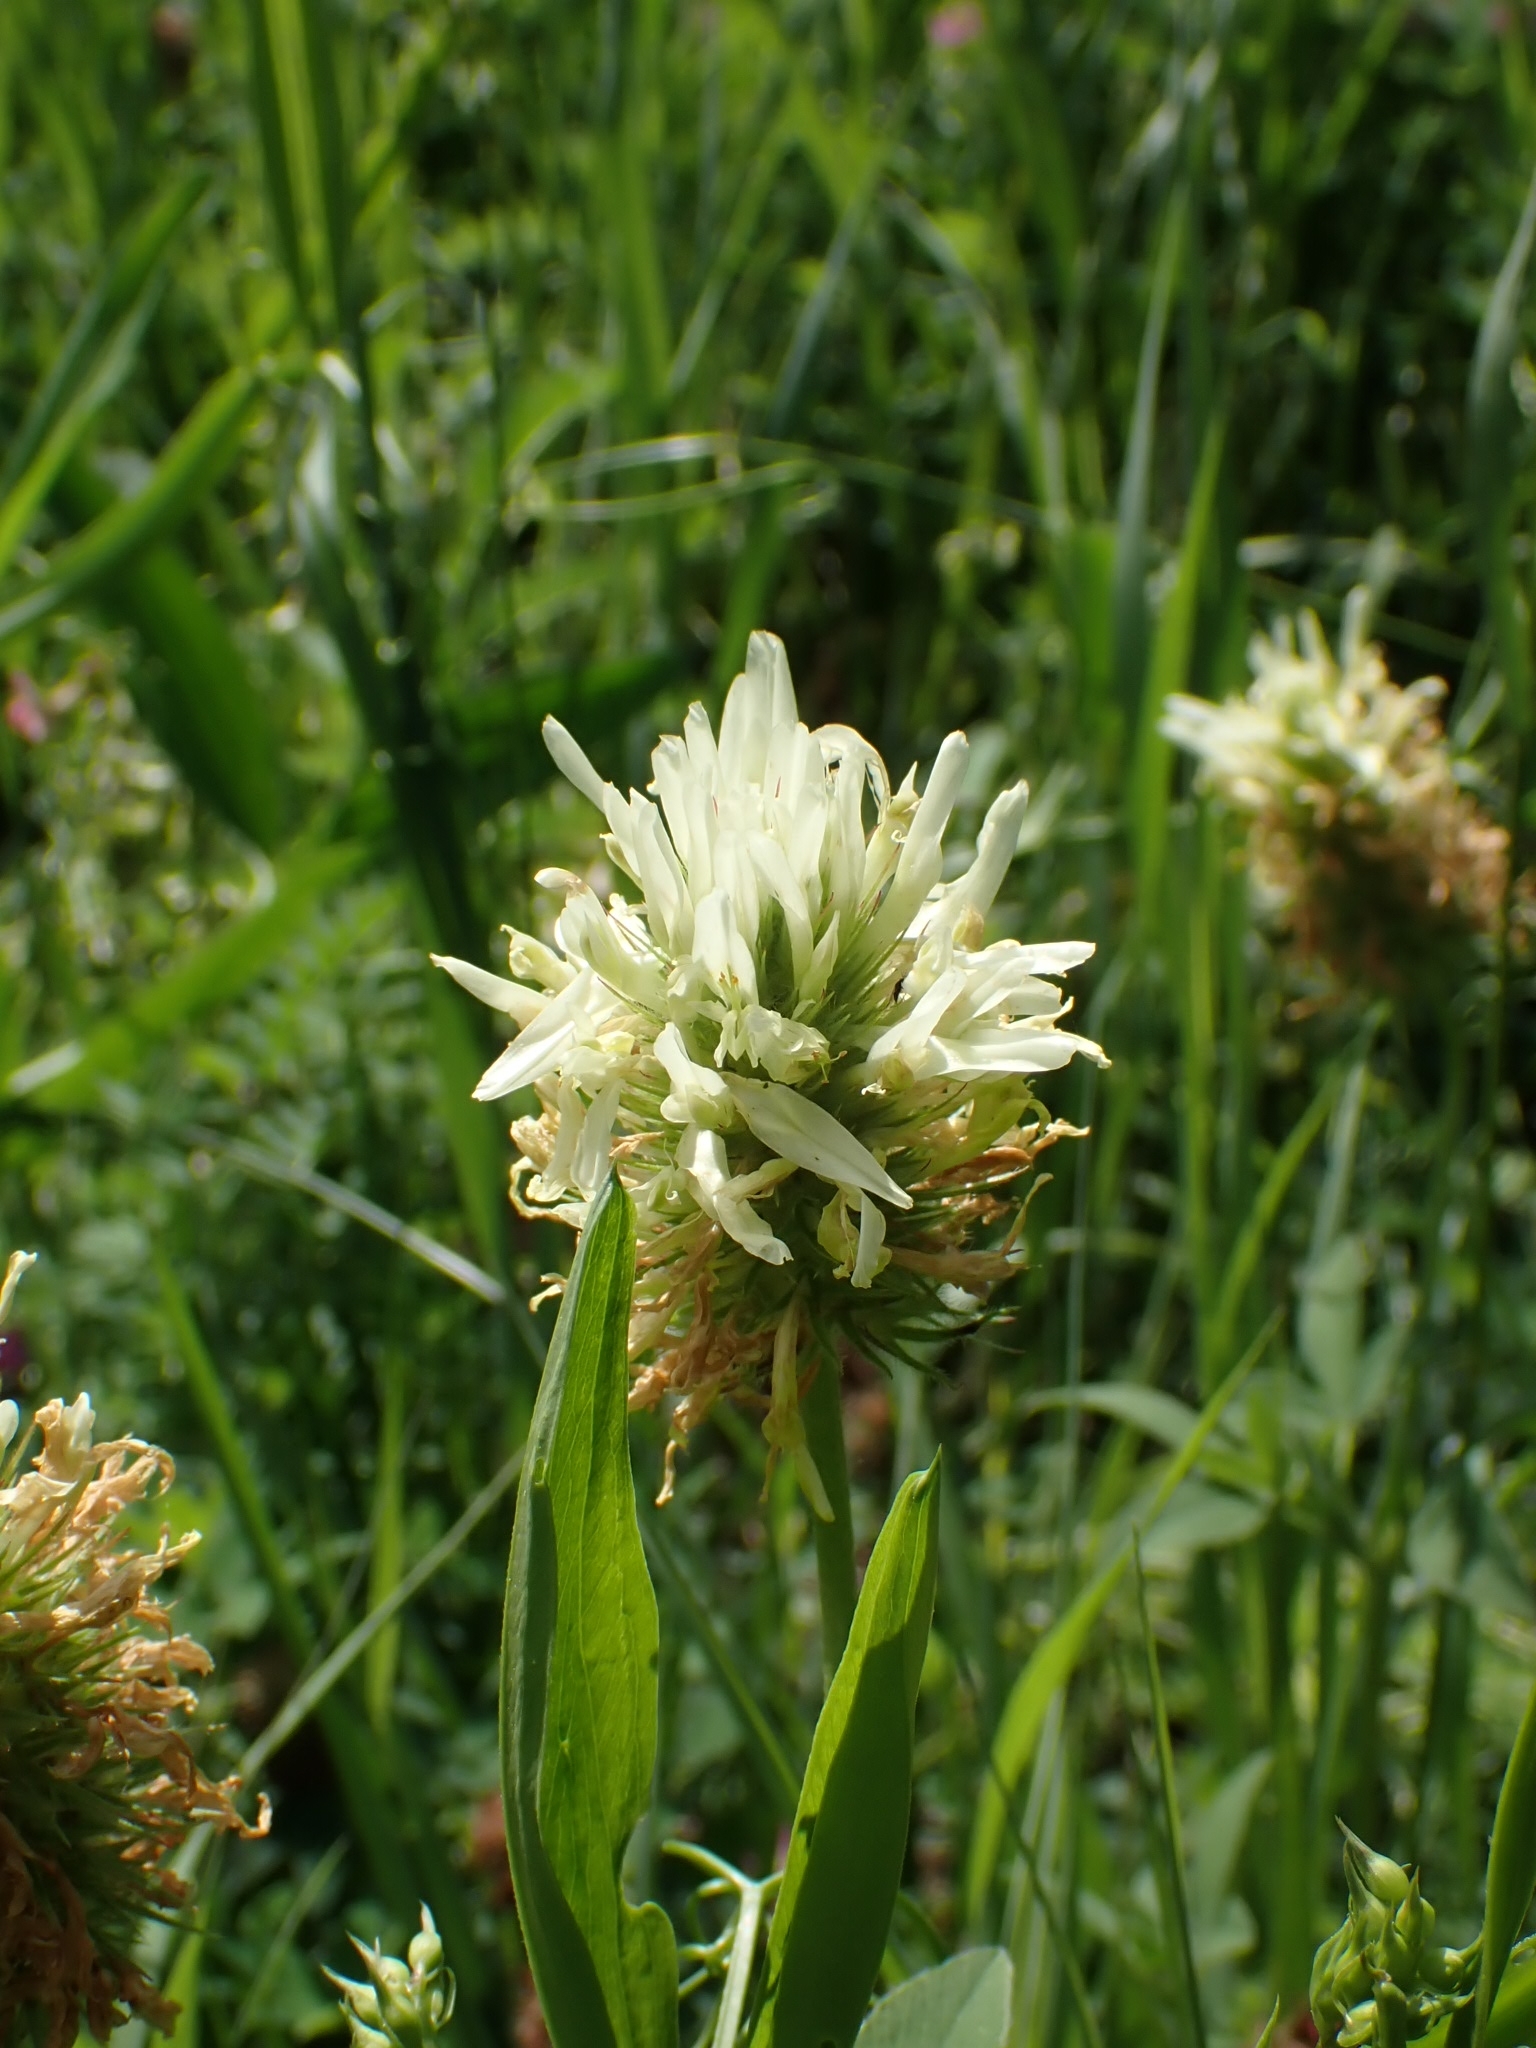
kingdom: Plantae
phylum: Tracheophyta
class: Magnoliopsida
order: Fabales
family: Fabaceae
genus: Trifolium
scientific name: Trifolium montanum
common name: Mountain clover
